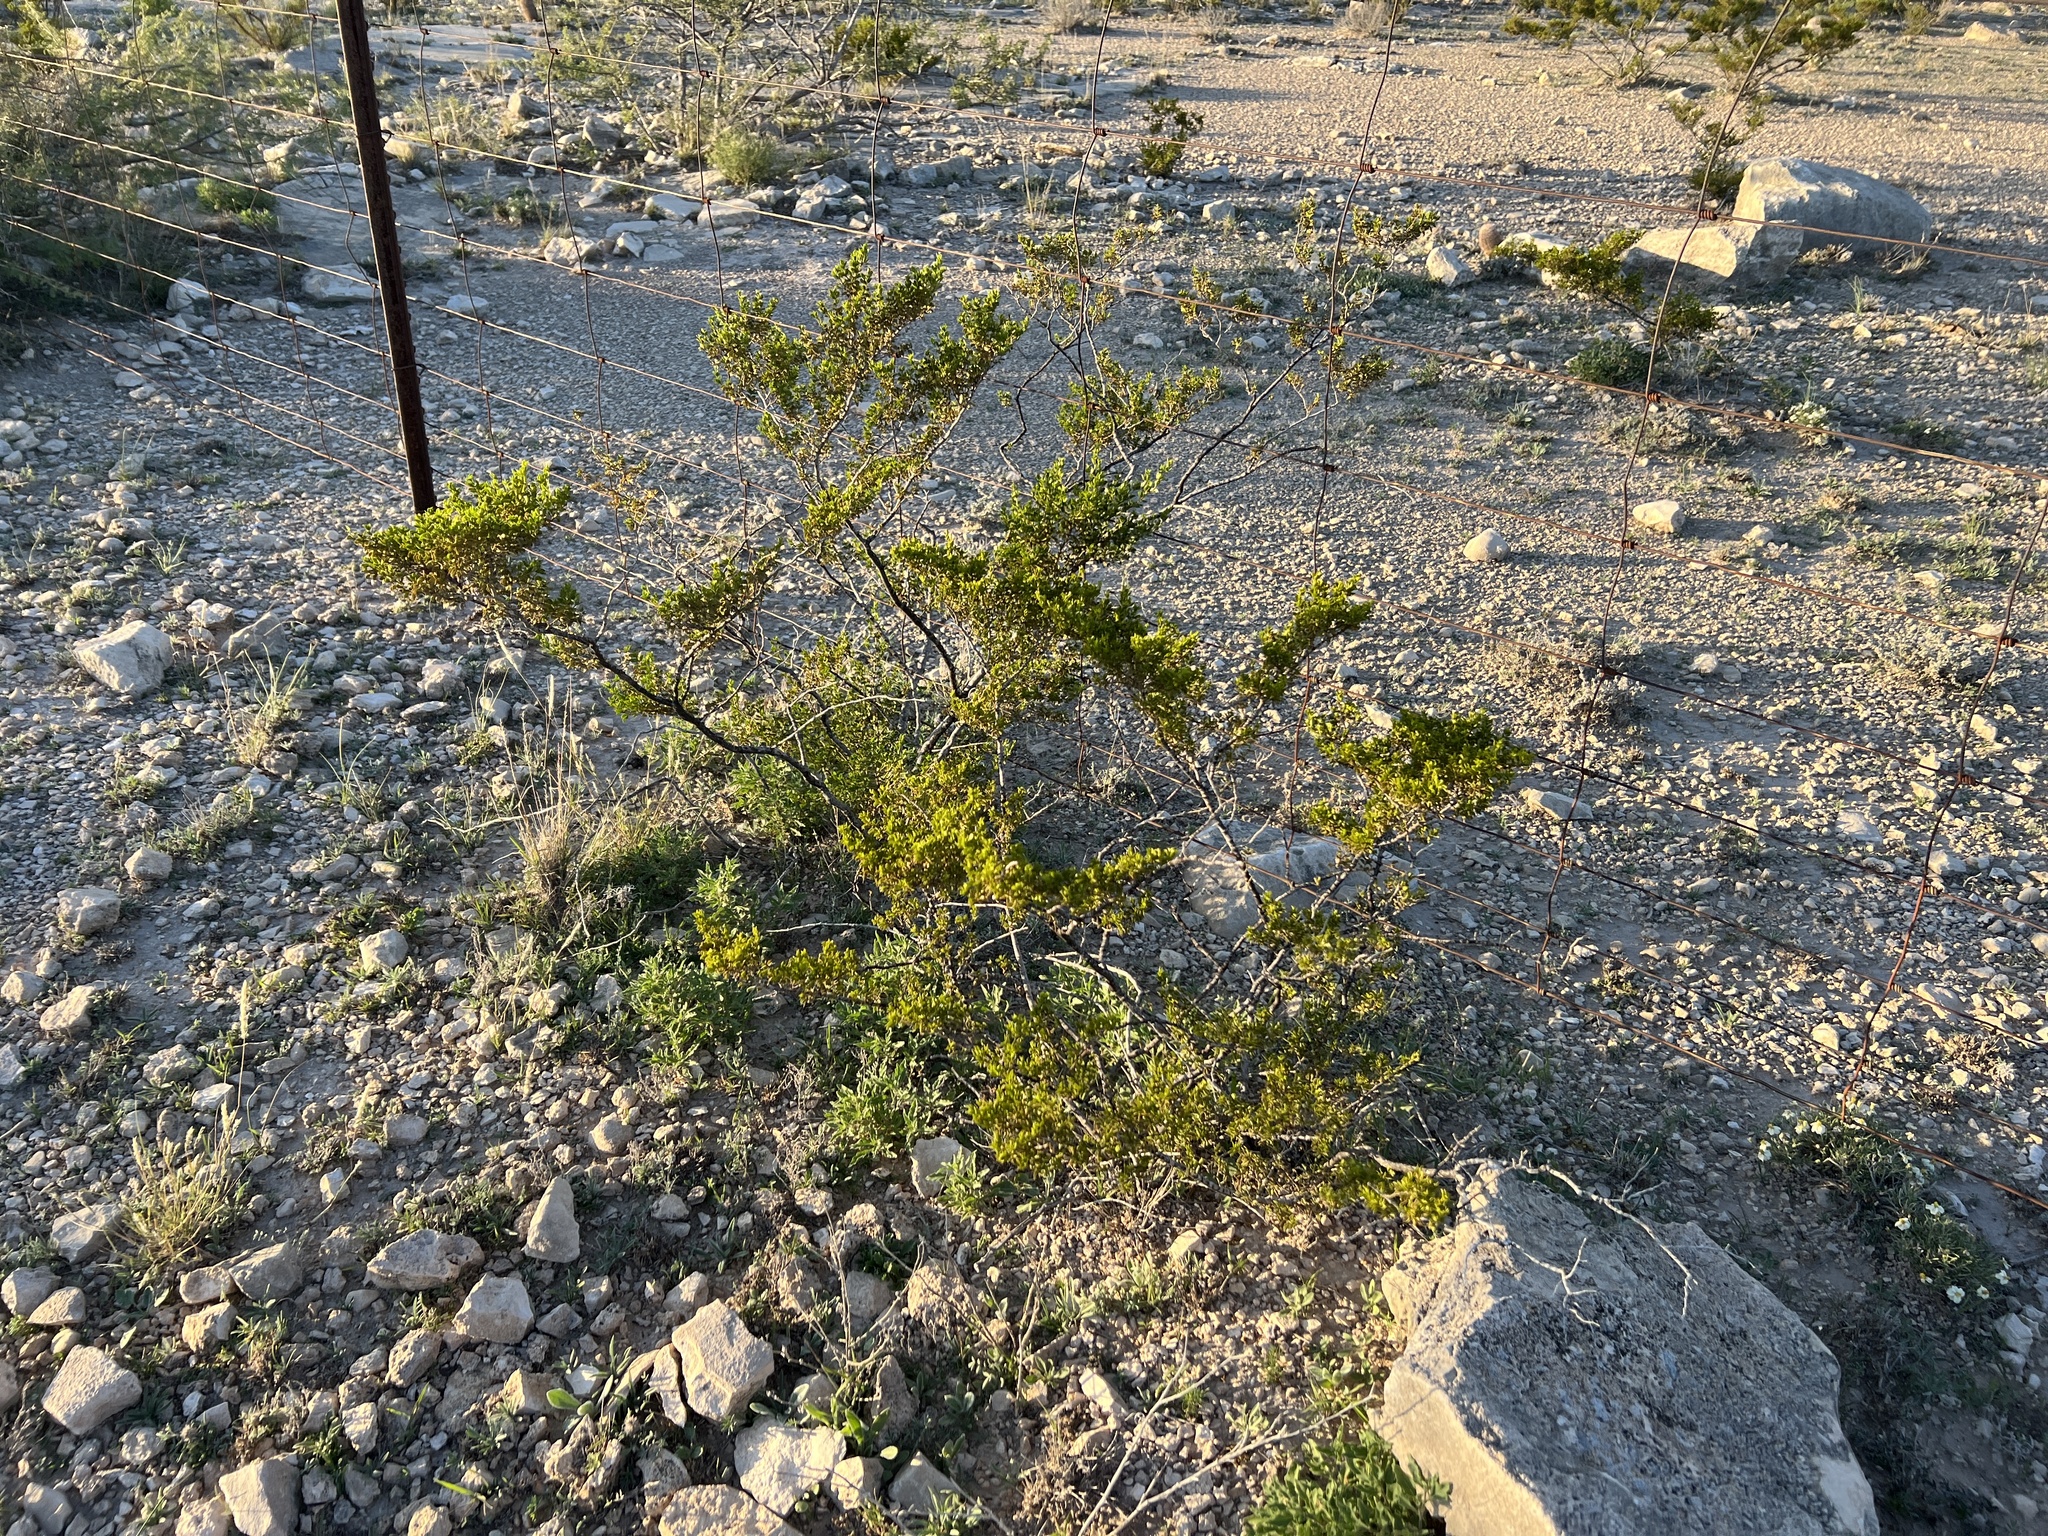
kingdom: Plantae
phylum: Tracheophyta
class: Magnoliopsida
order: Zygophyllales
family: Zygophyllaceae
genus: Larrea
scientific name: Larrea tridentata
